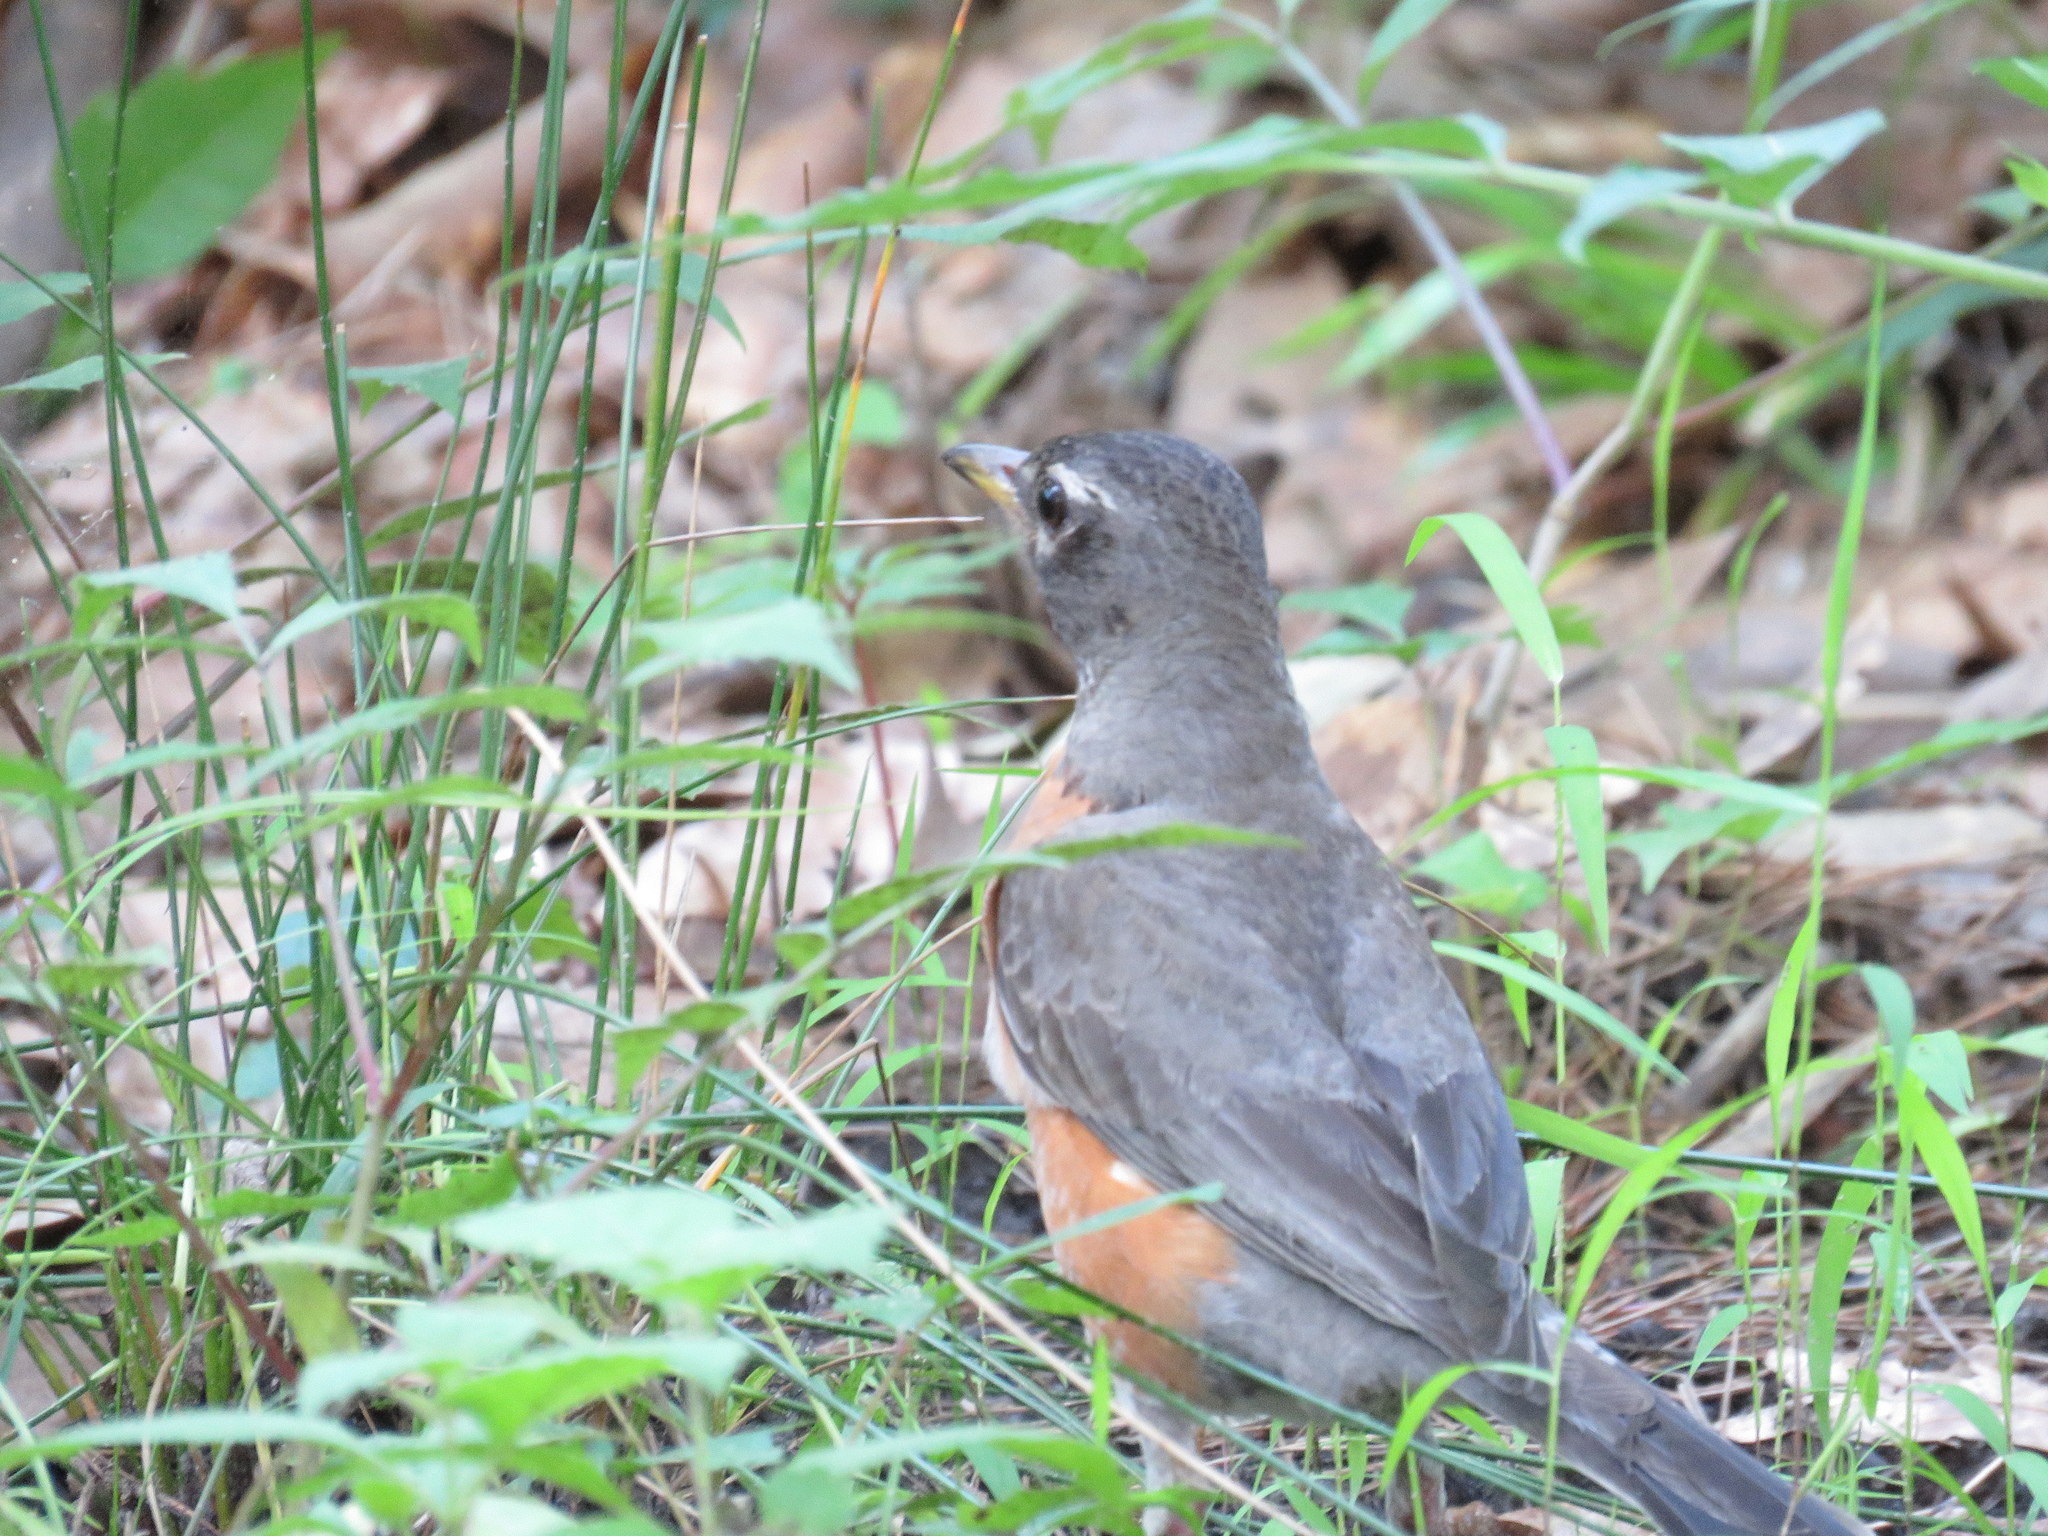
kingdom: Animalia
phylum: Chordata
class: Aves
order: Passeriformes
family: Turdidae
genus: Turdus
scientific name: Turdus migratorius
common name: American robin
